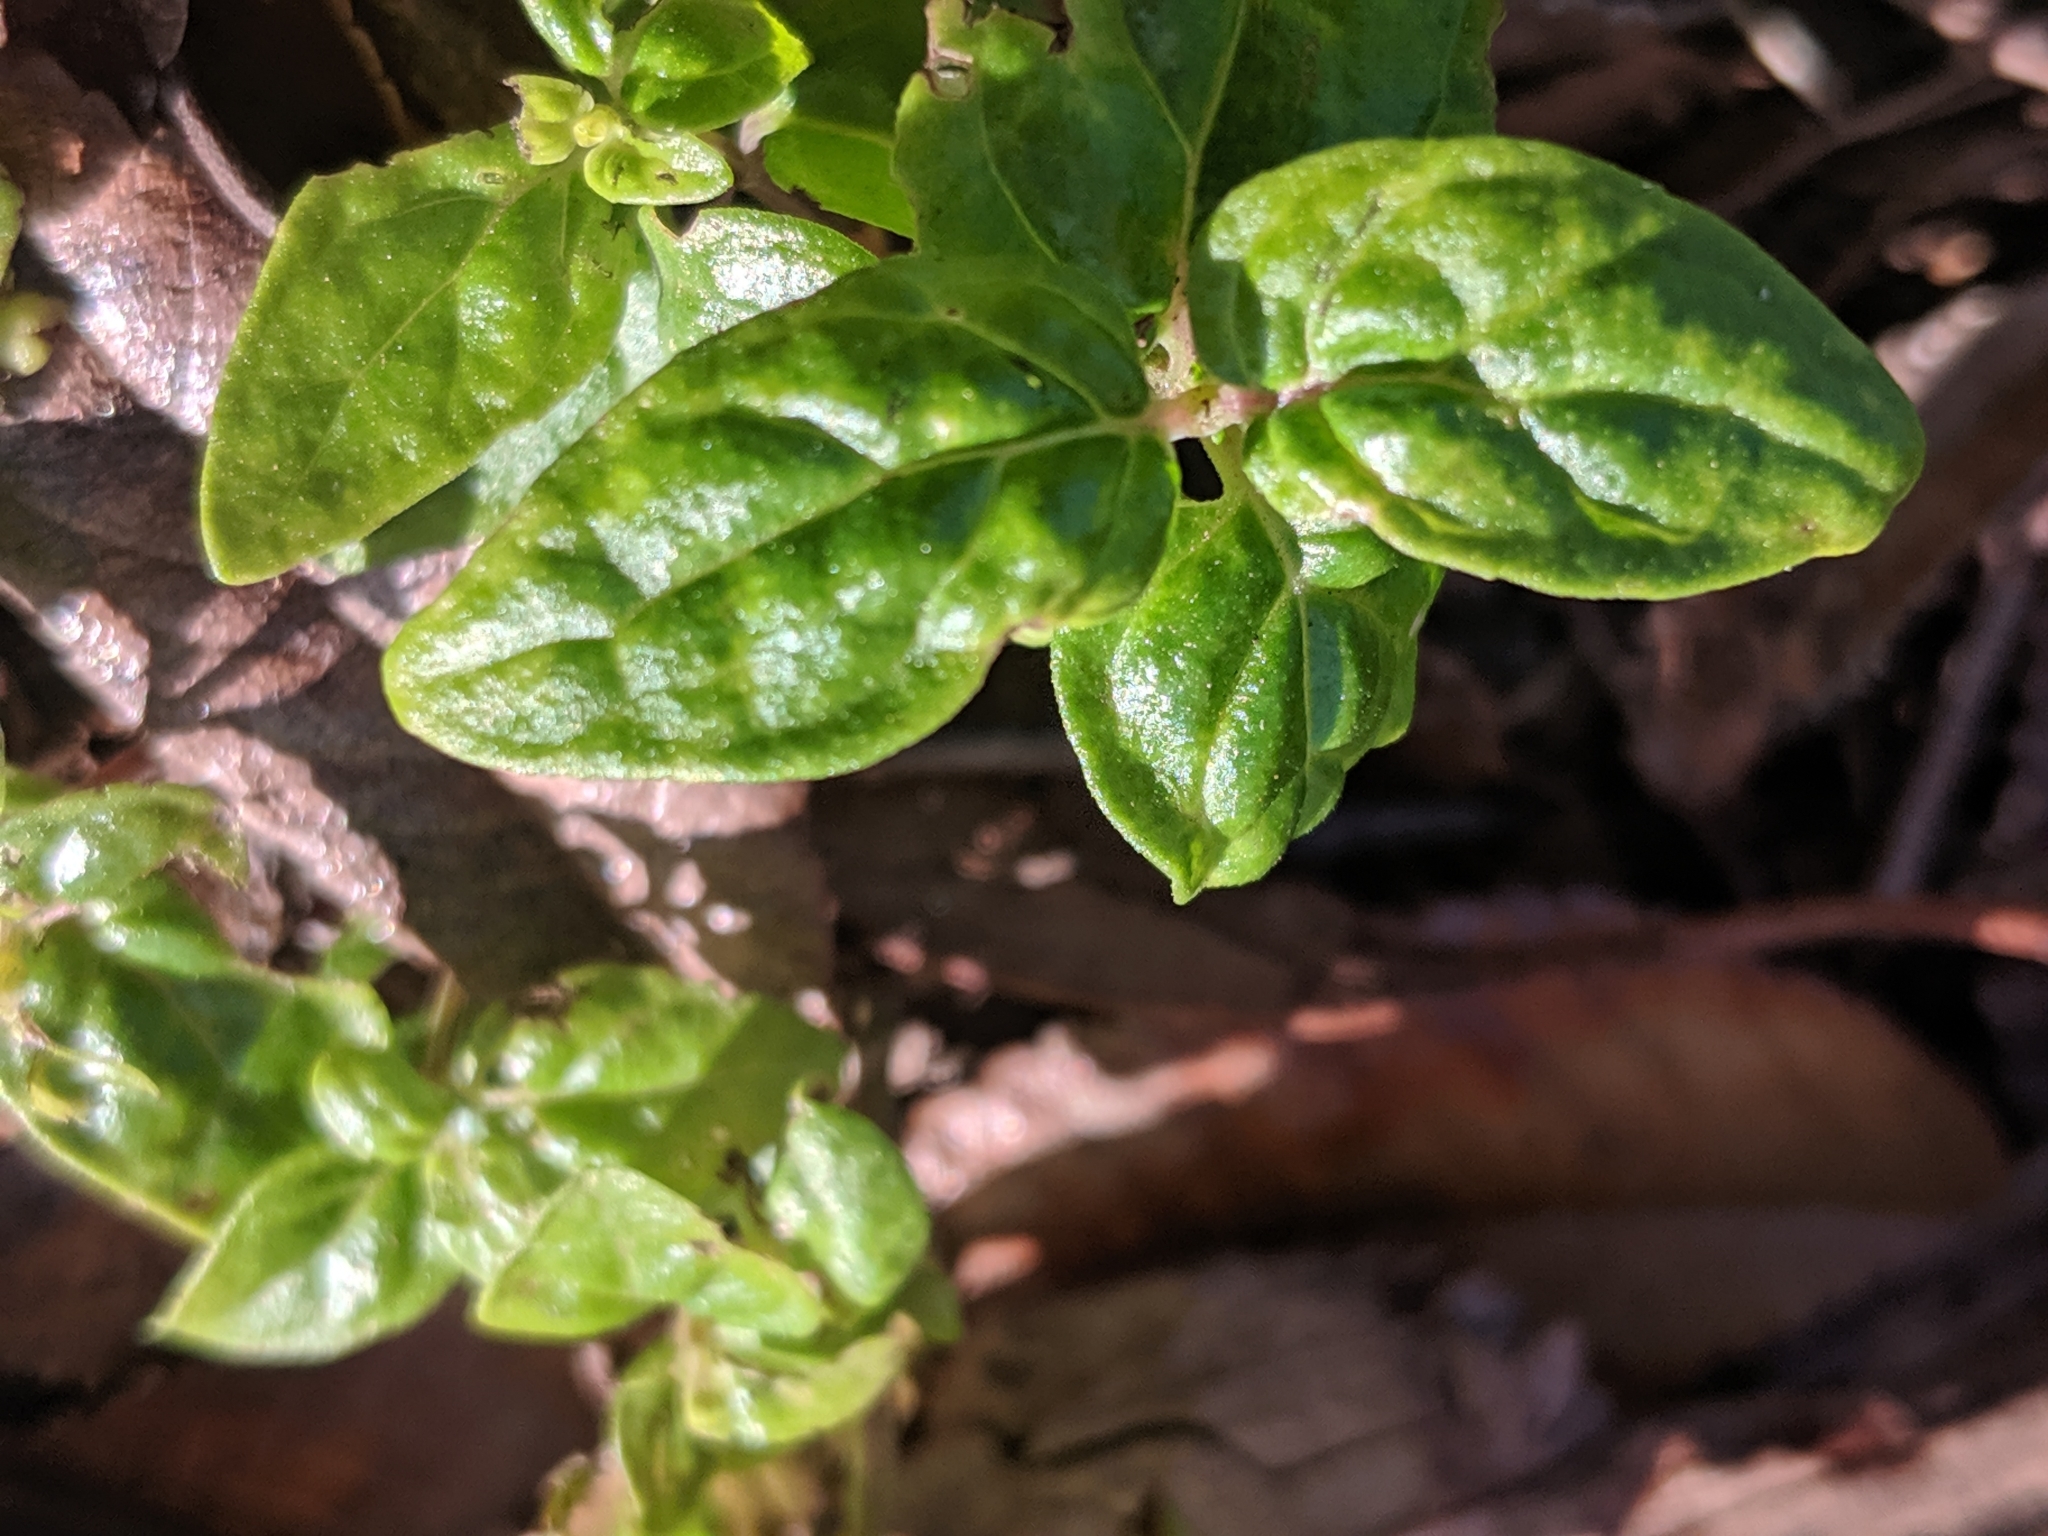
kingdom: Plantae
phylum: Tracheophyta
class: Magnoliopsida
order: Lamiales
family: Lamiaceae
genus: Mentha
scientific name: Mentha australis
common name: Australian mint
